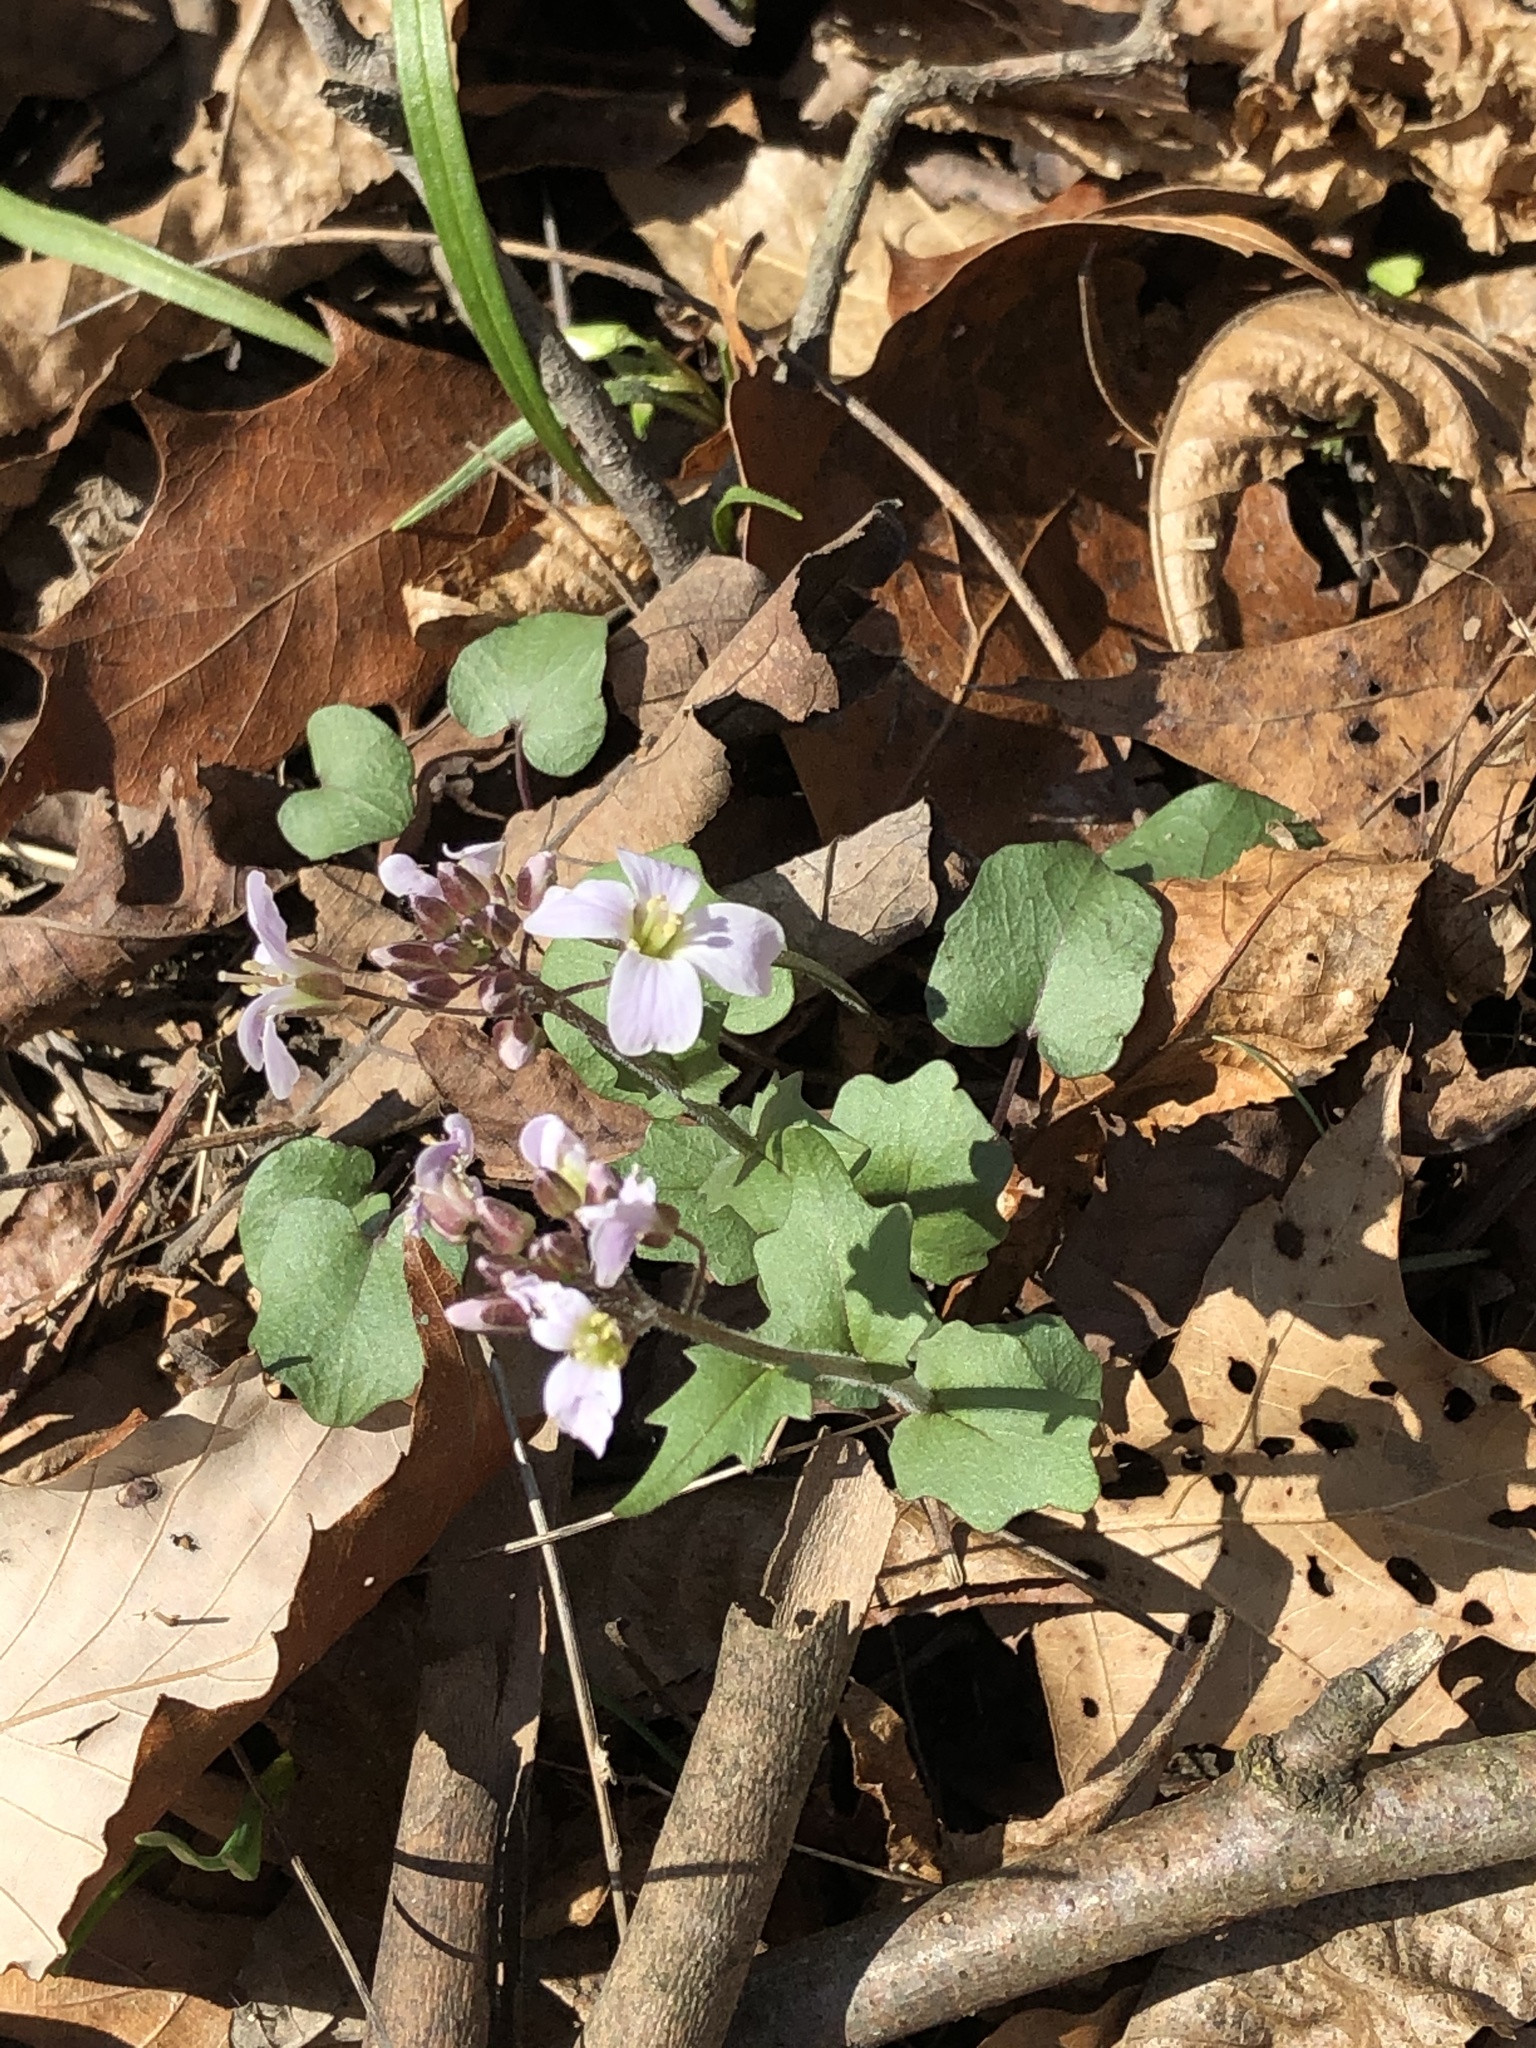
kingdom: Plantae
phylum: Tracheophyta
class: Magnoliopsida
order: Brassicales
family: Brassicaceae
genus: Cardamine
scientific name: Cardamine douglassii
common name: Purple cress
